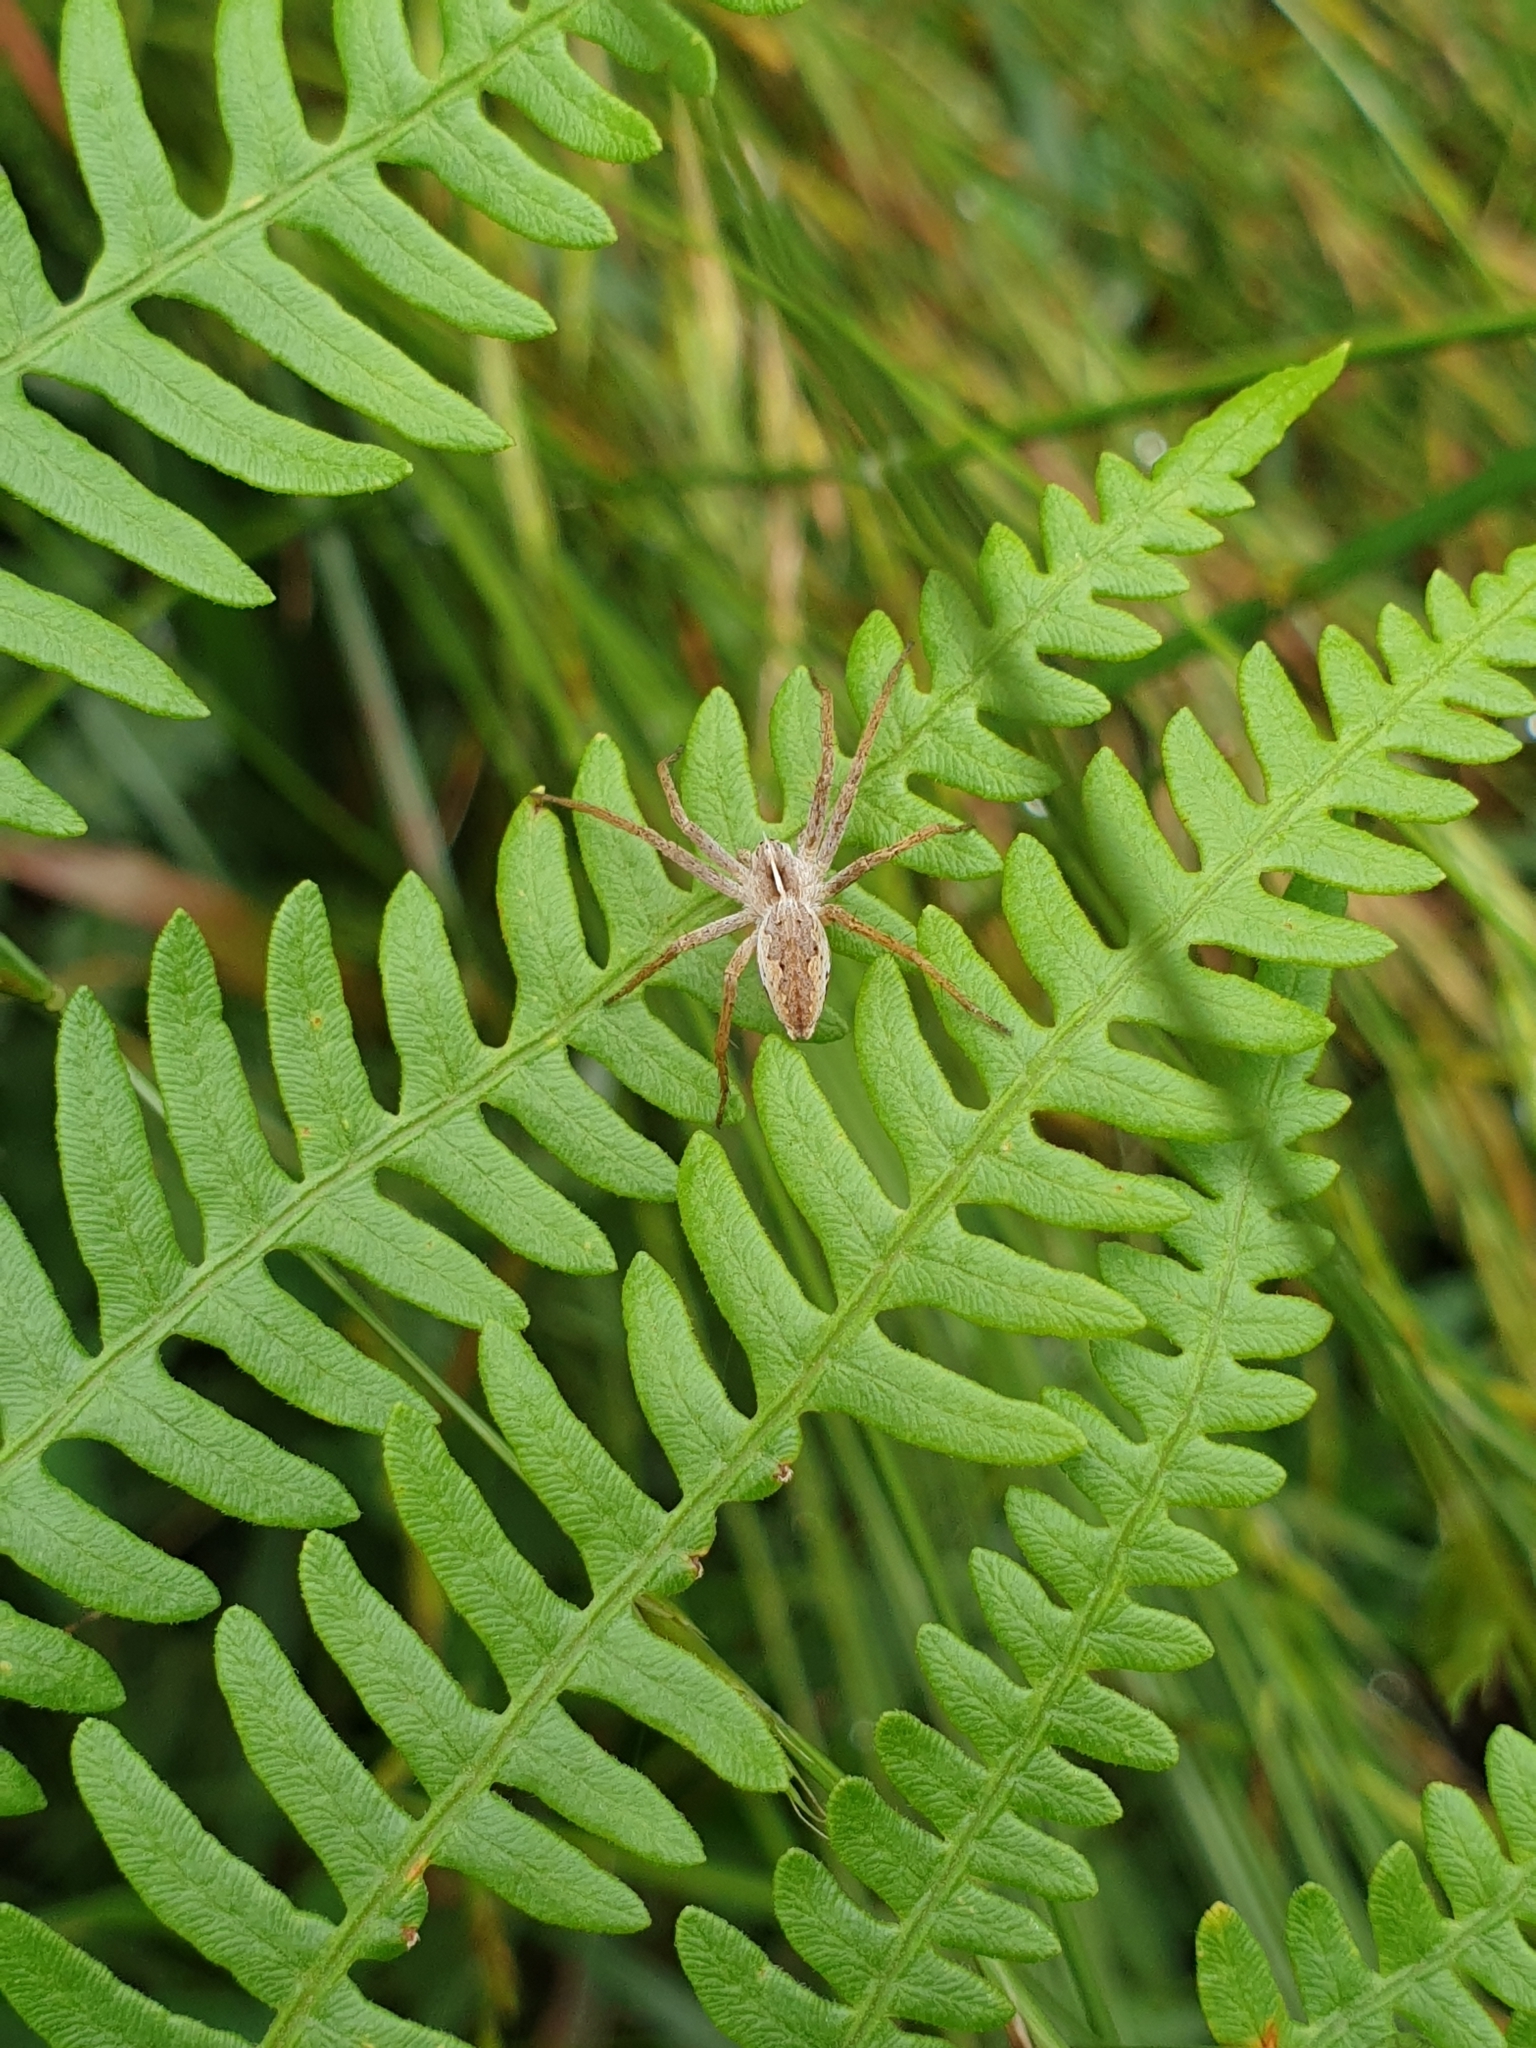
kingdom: Animalia
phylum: Arthropoda
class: Arachnida
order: Araneae
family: Pisauridae
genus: Pisaura
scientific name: Pisaura mirabilis
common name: Tent spider
